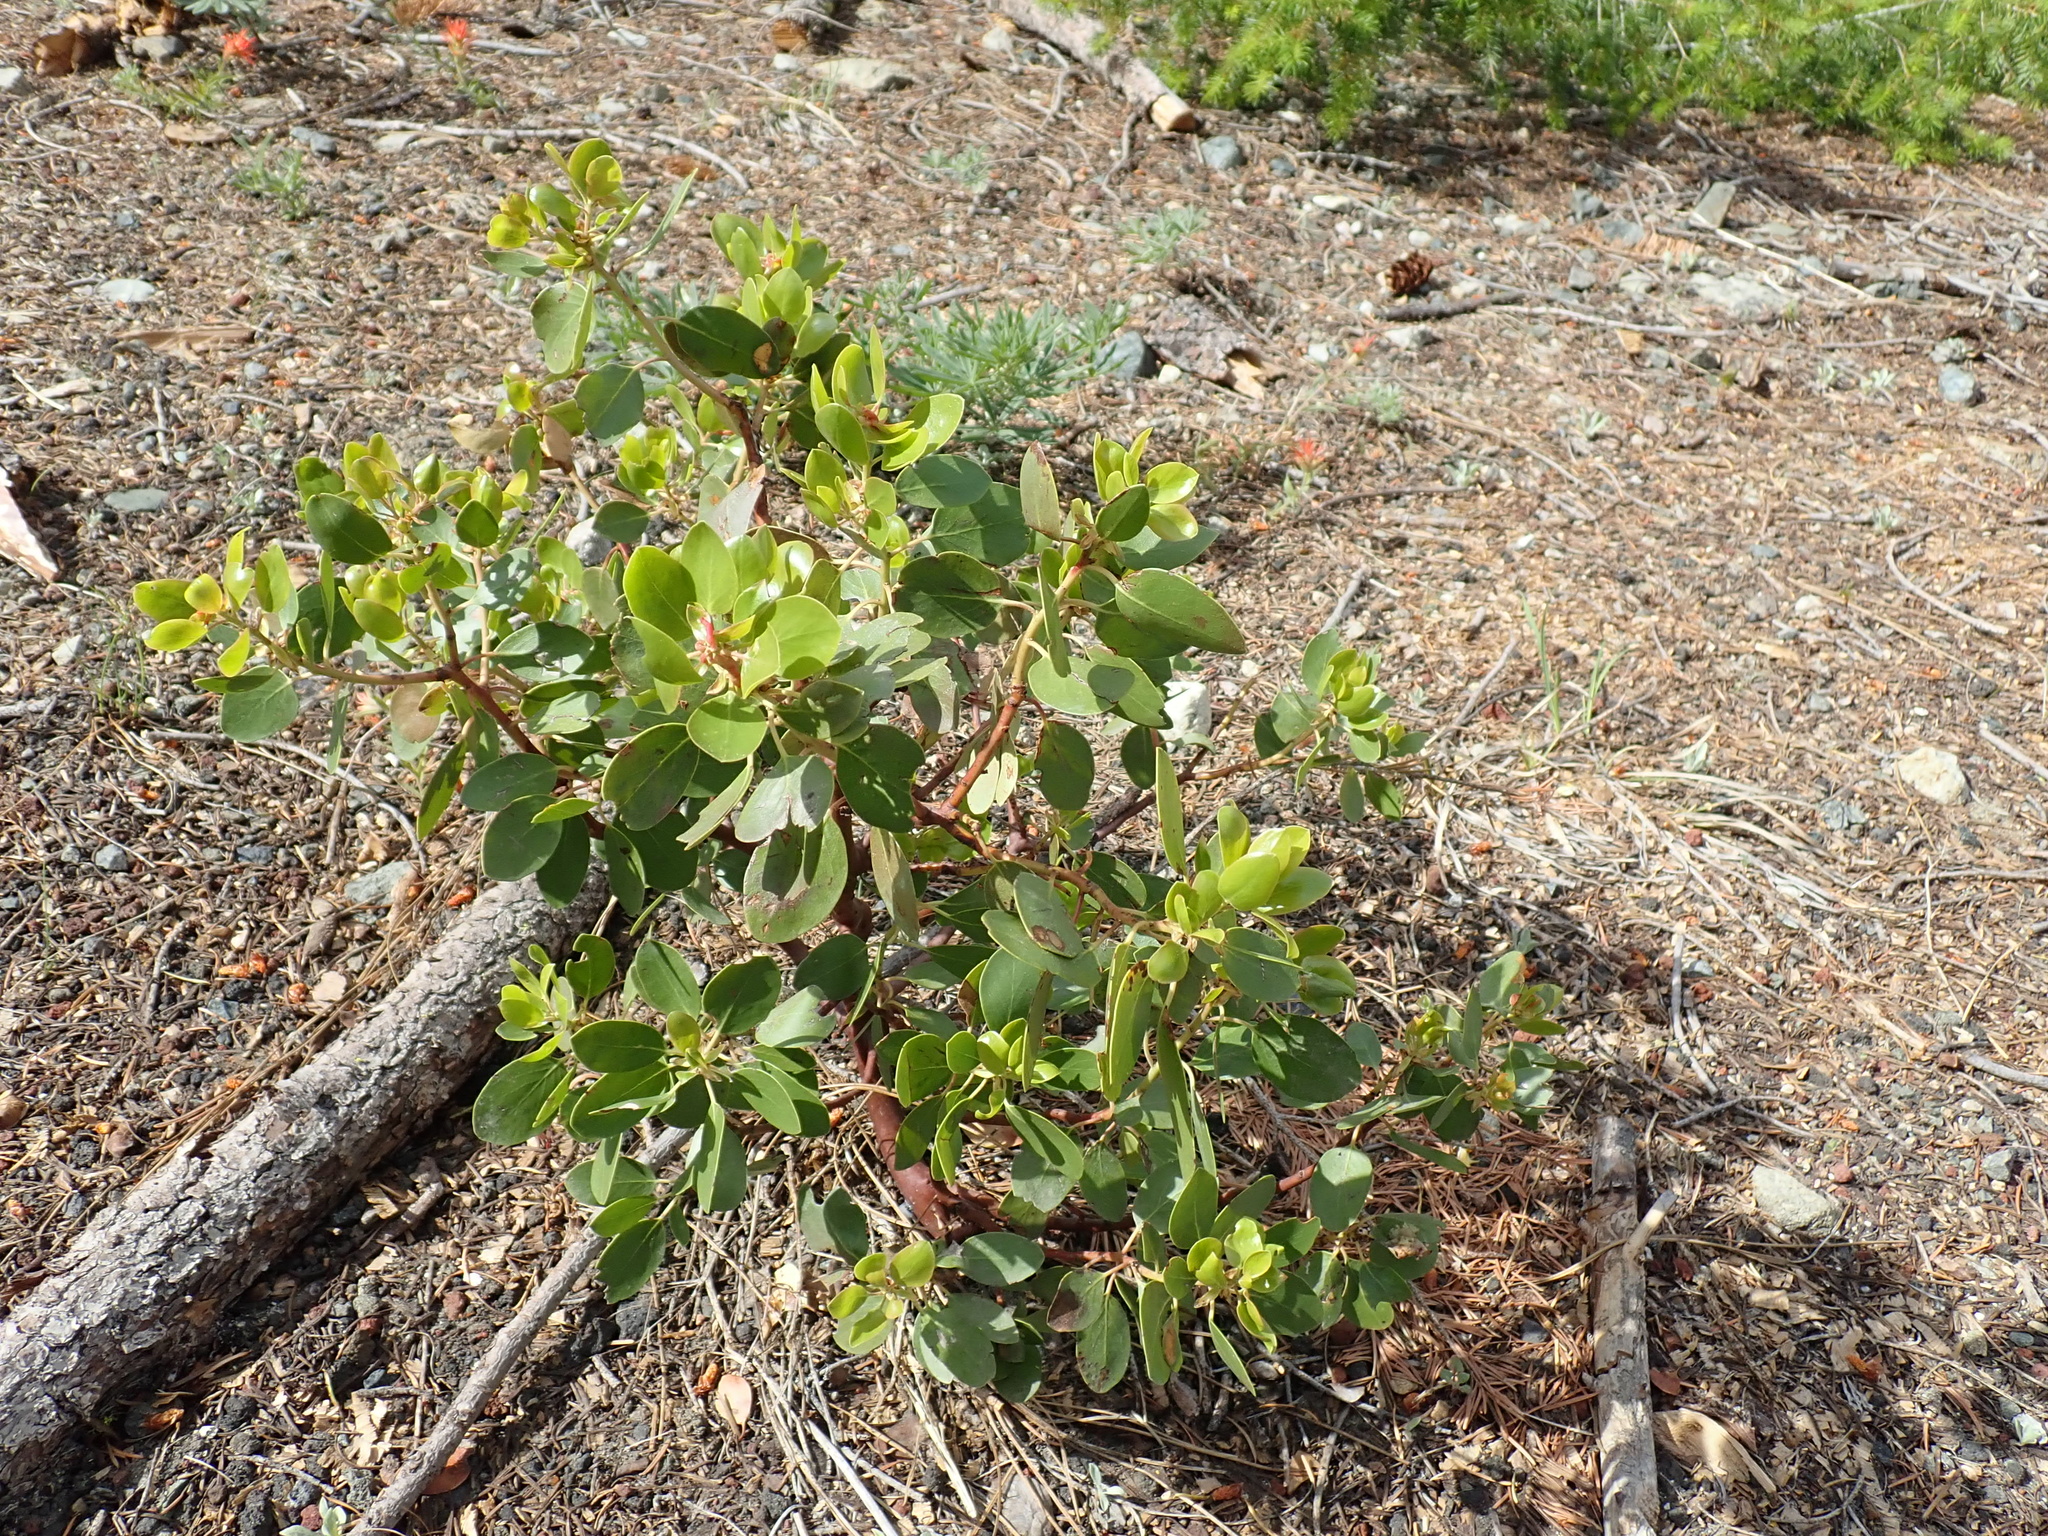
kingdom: Plantae
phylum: Tracheophyta
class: Magnoliopsida
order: Ericales
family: Ericaceae
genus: Arctostaphylos
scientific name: Arctostaphylos patula
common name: Green-leaf manzanita
